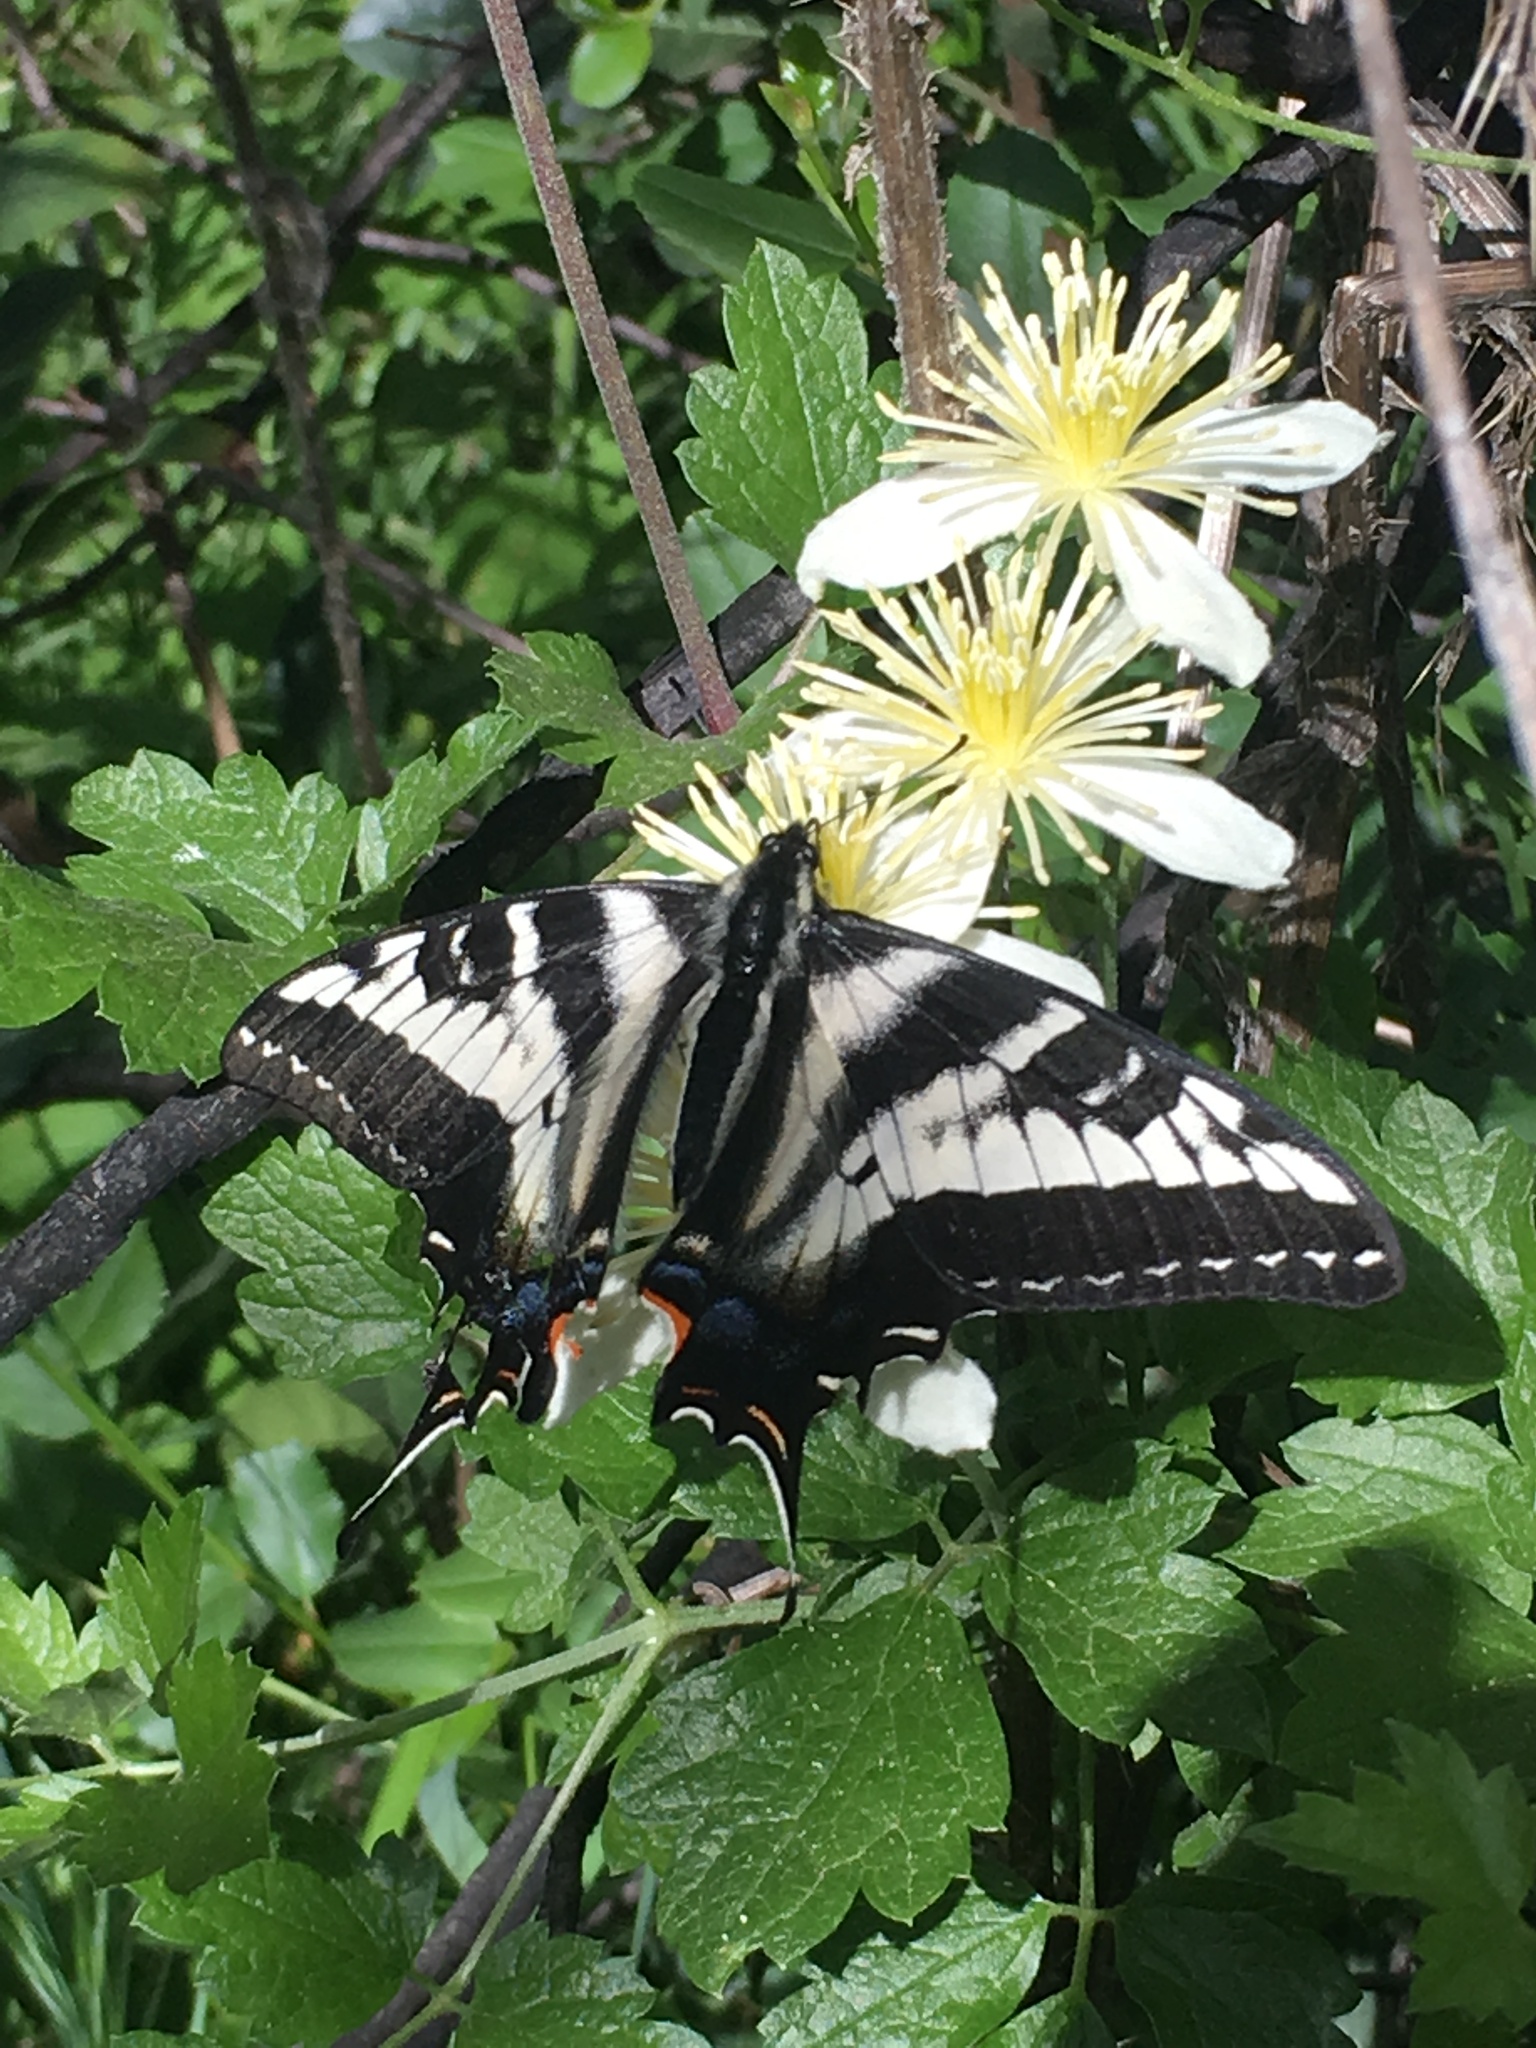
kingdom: Animalia
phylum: Arthropoda
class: Insecta
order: Lepidoptera
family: Papilionidae
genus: Papilio
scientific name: Papilio eurymedon
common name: Pale tiger swallowtail
